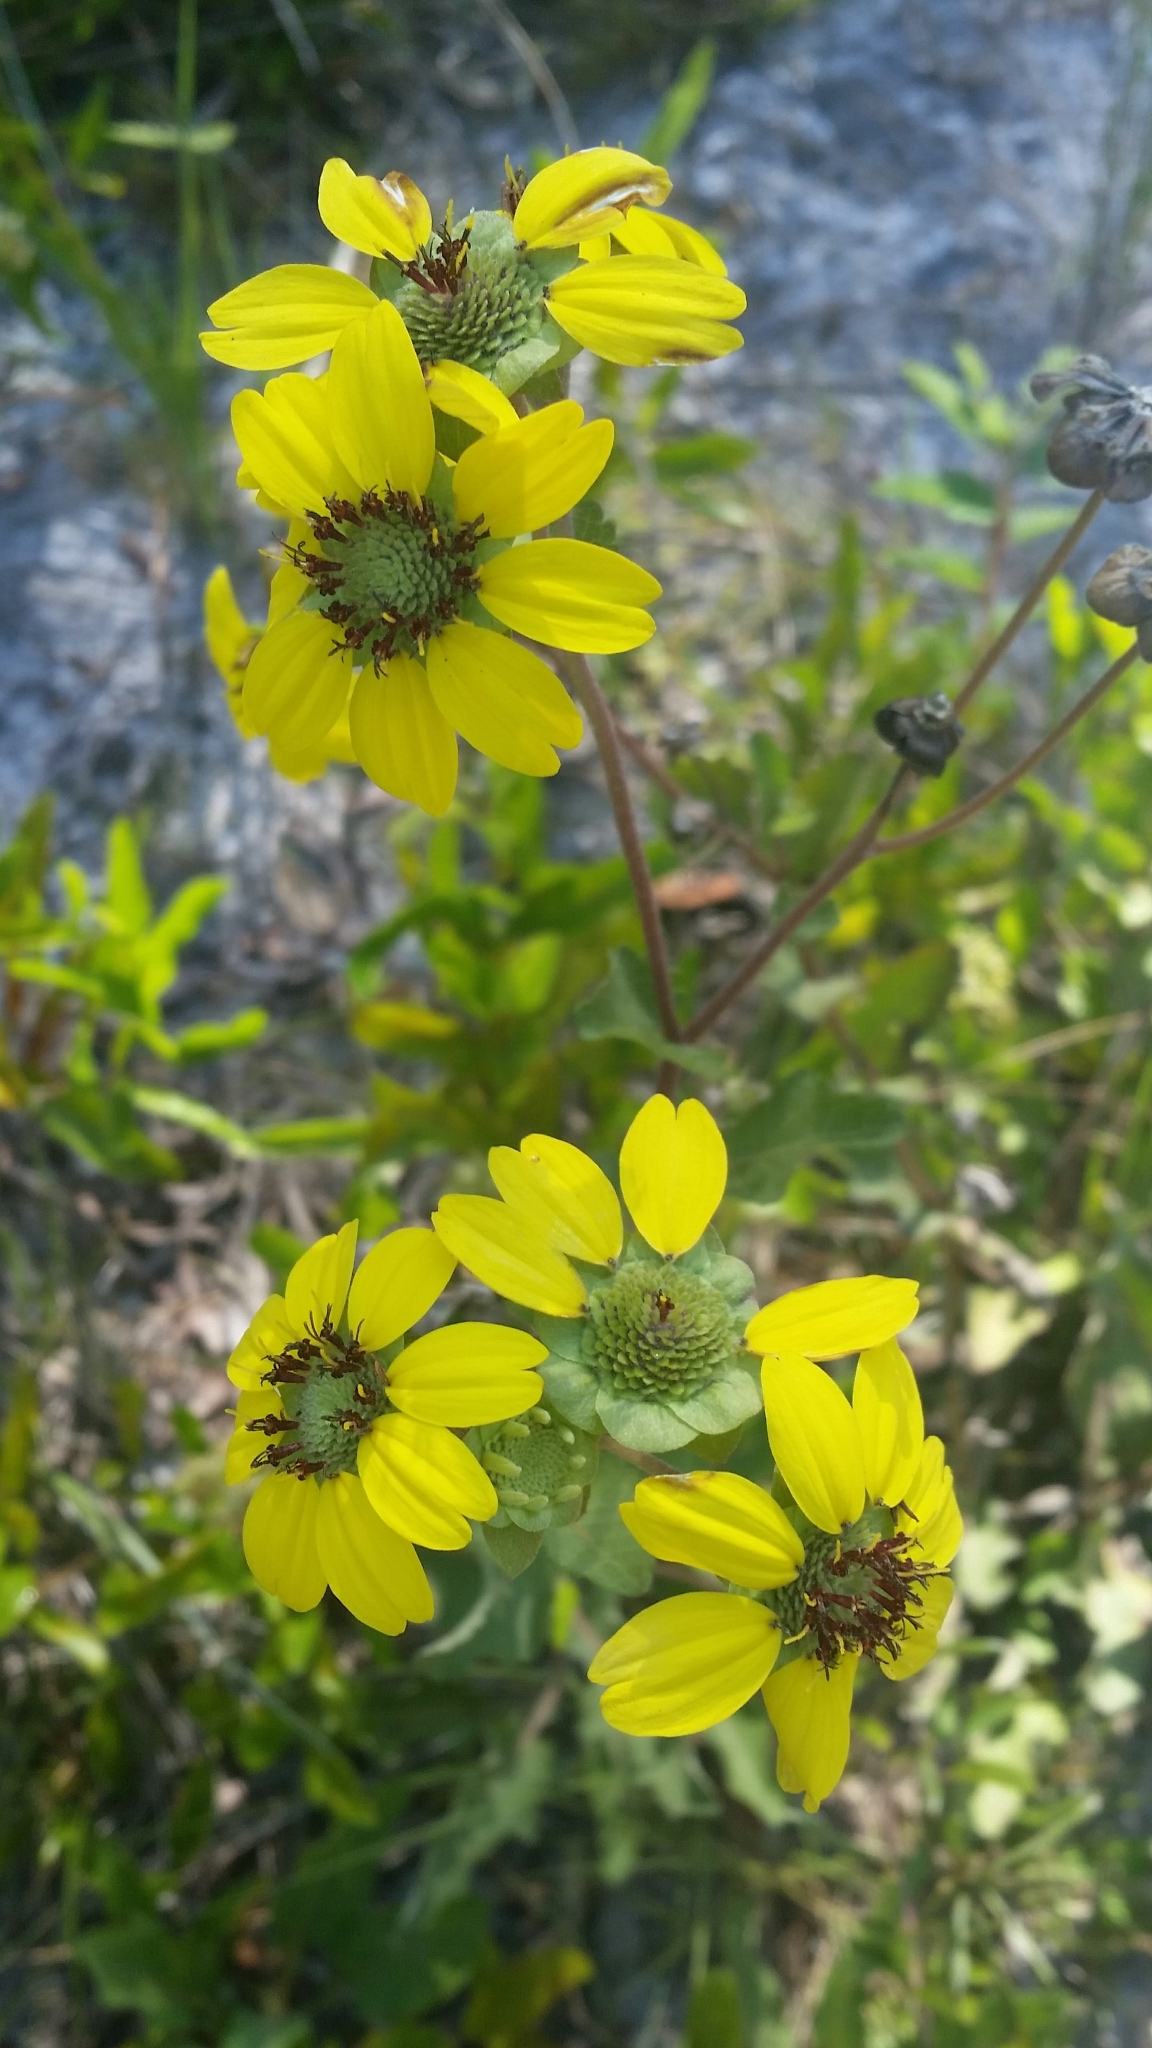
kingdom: Plantae
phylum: Tracheophyta
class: Magnoliopsida
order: Asterales
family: Asteraceae
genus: Berlandiera
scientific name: Berlandiera pumila
